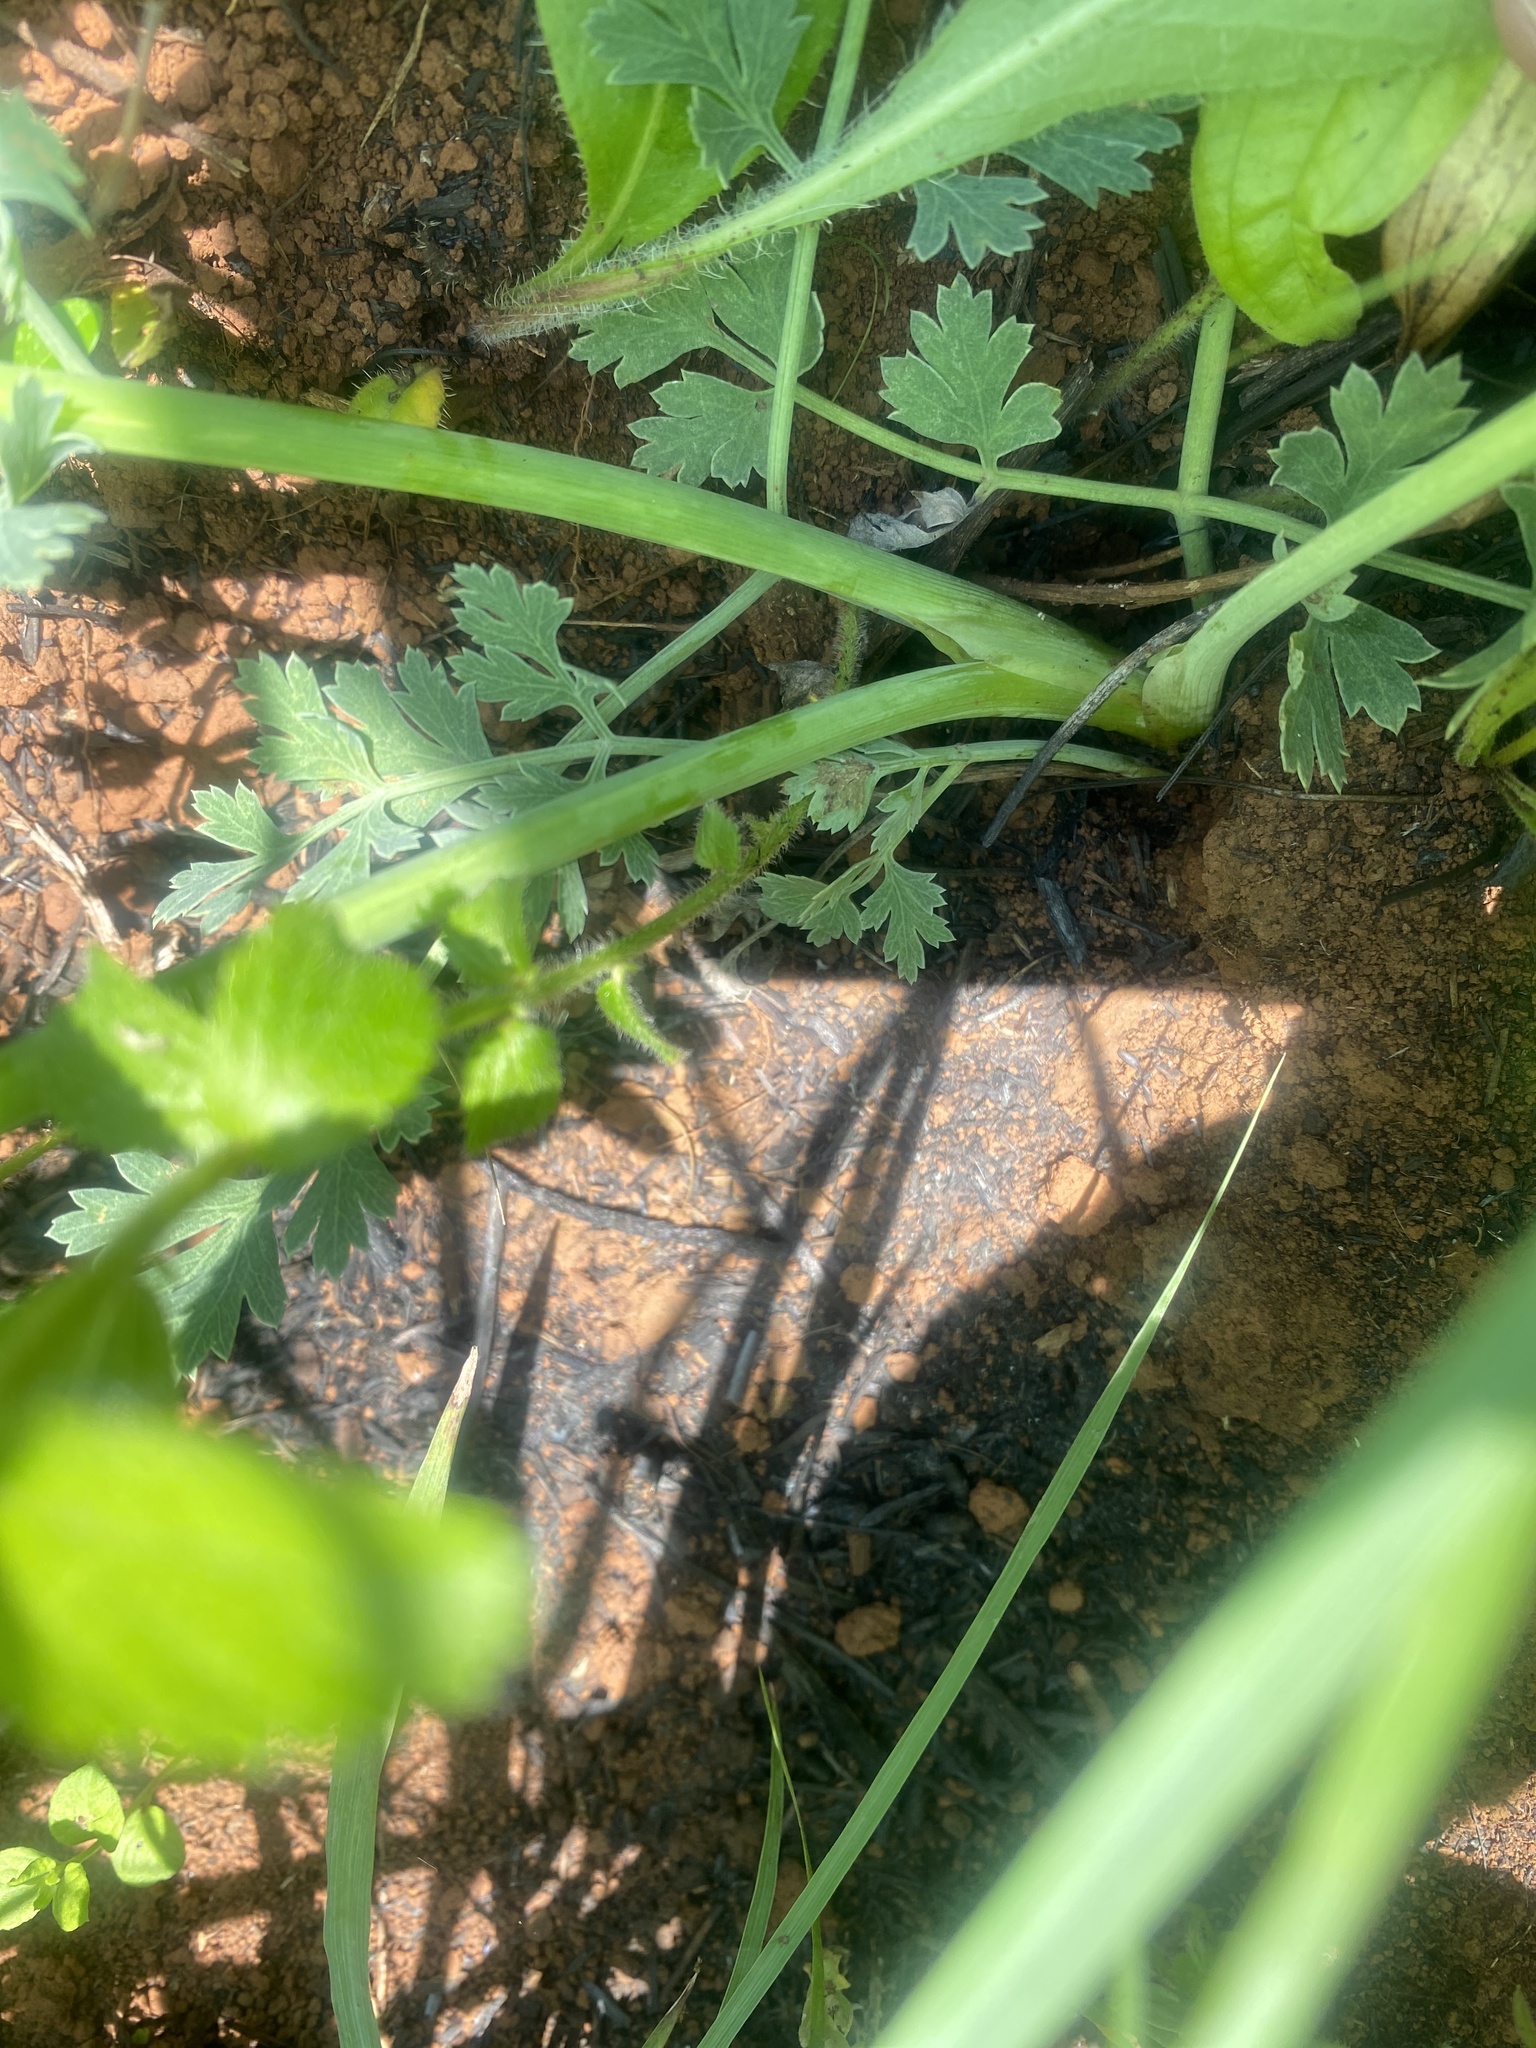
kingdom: Plantae
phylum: Tracheophyta
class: Magnoliopsida
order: Apiales
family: Apiaceae
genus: Afrosciadium
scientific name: Afrosciadium caffrum
